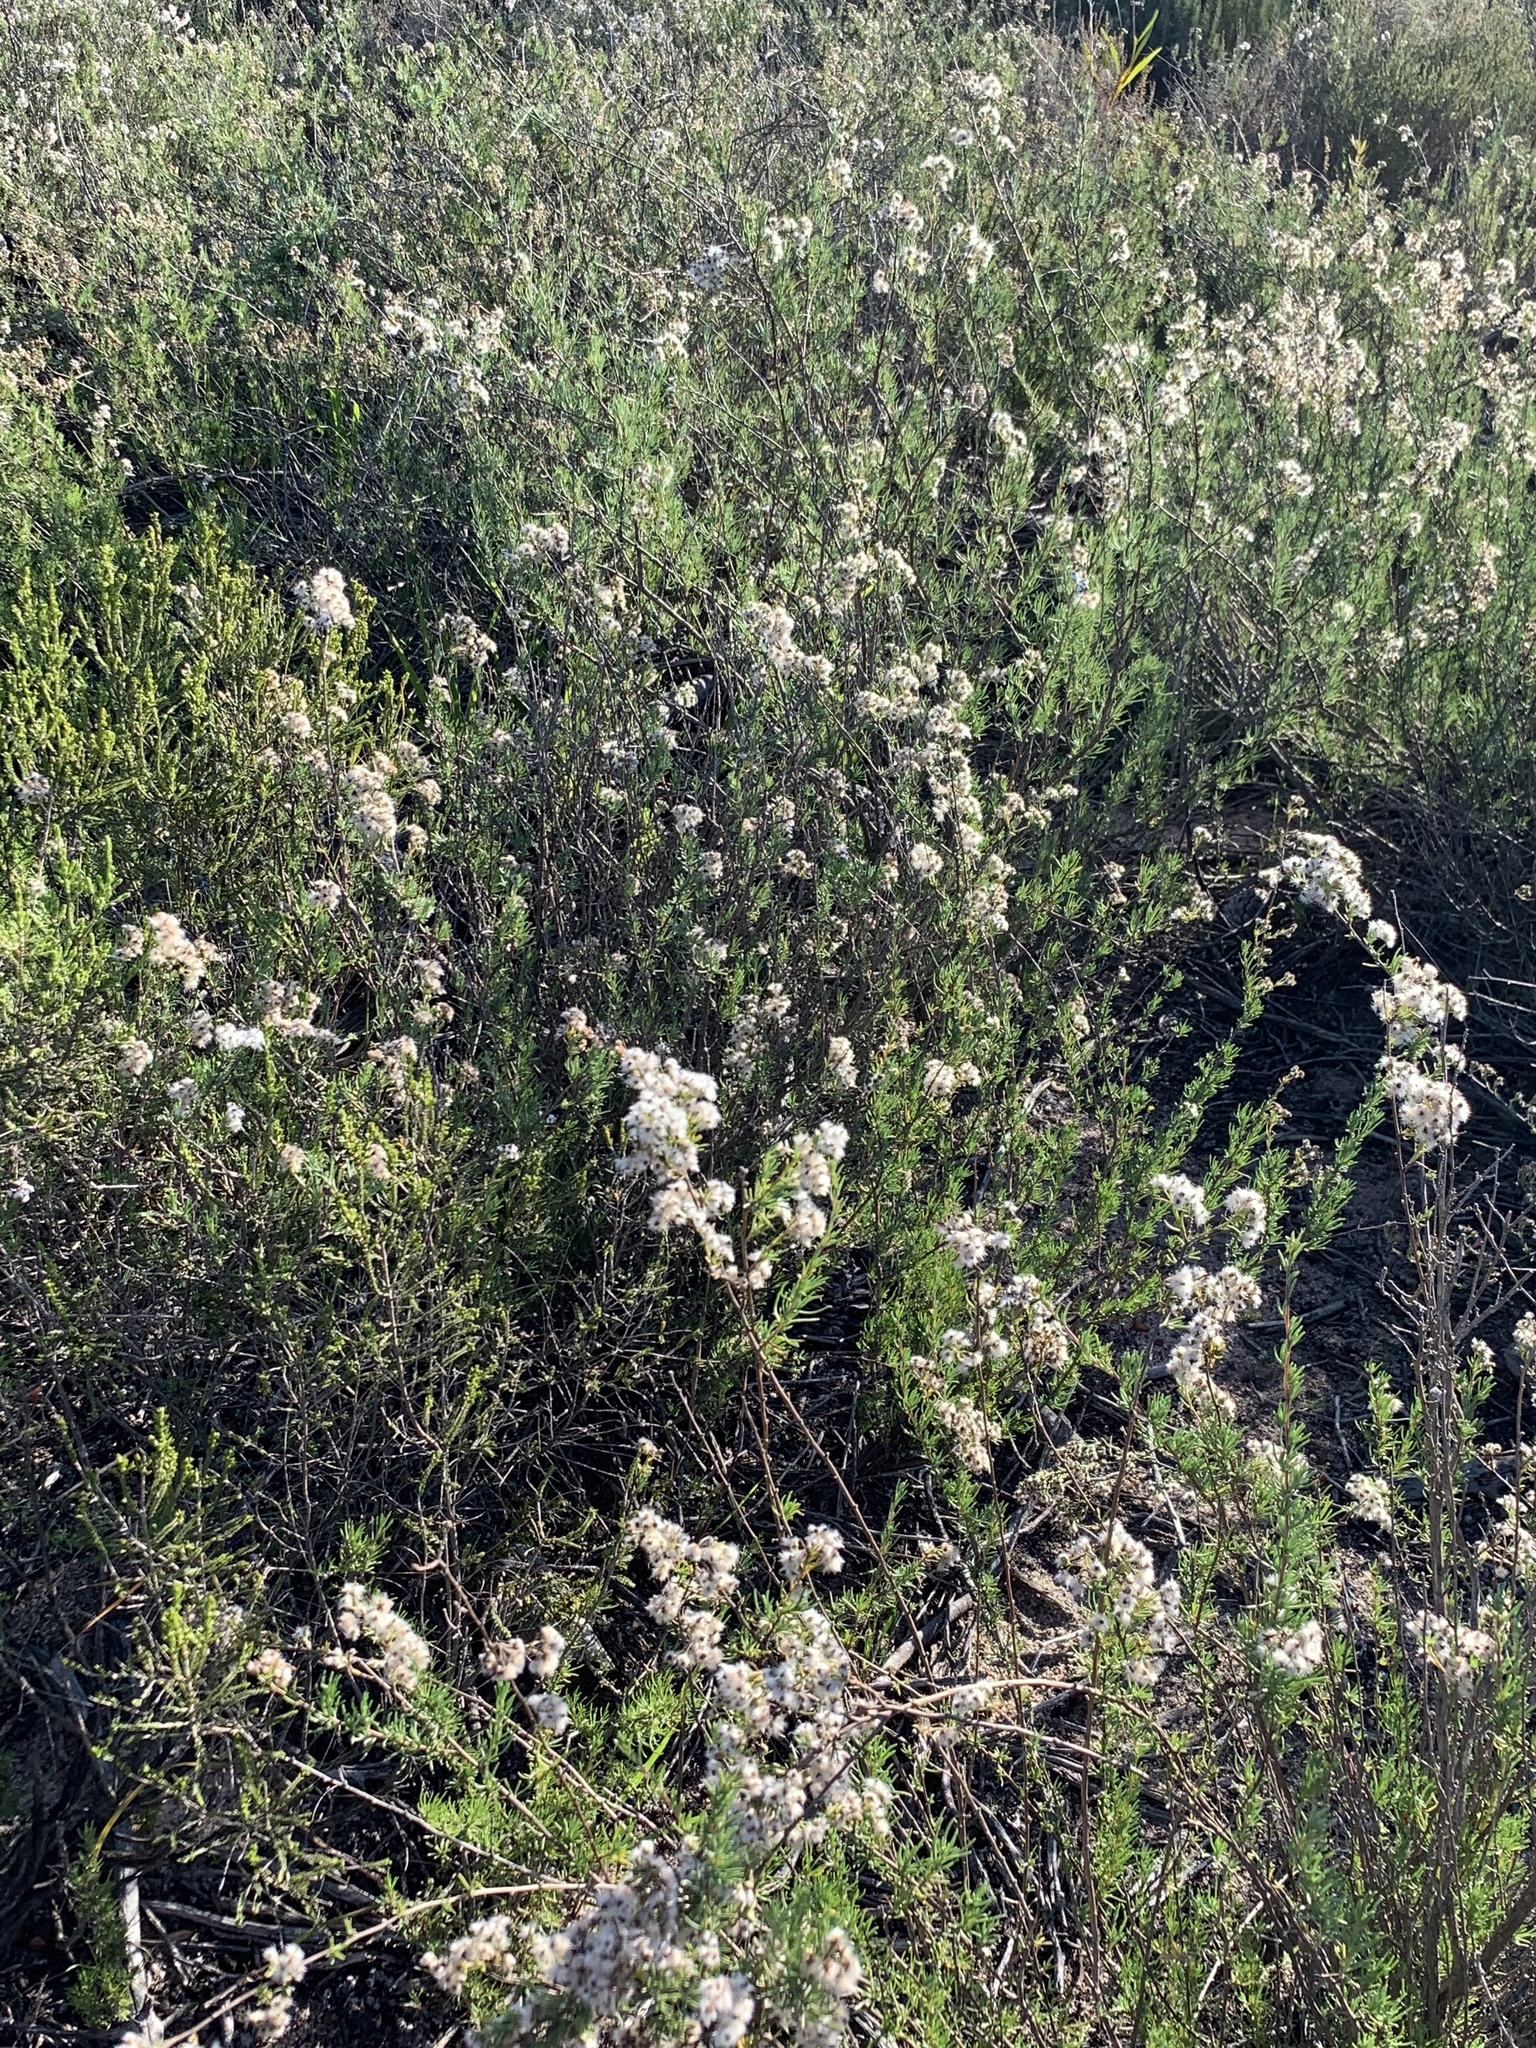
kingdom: Plantae
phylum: Tracheophyta
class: Magnoliopsida
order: Asterales
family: Asteraceae
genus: Eriocephalus
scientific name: Eriocephalus africanus
